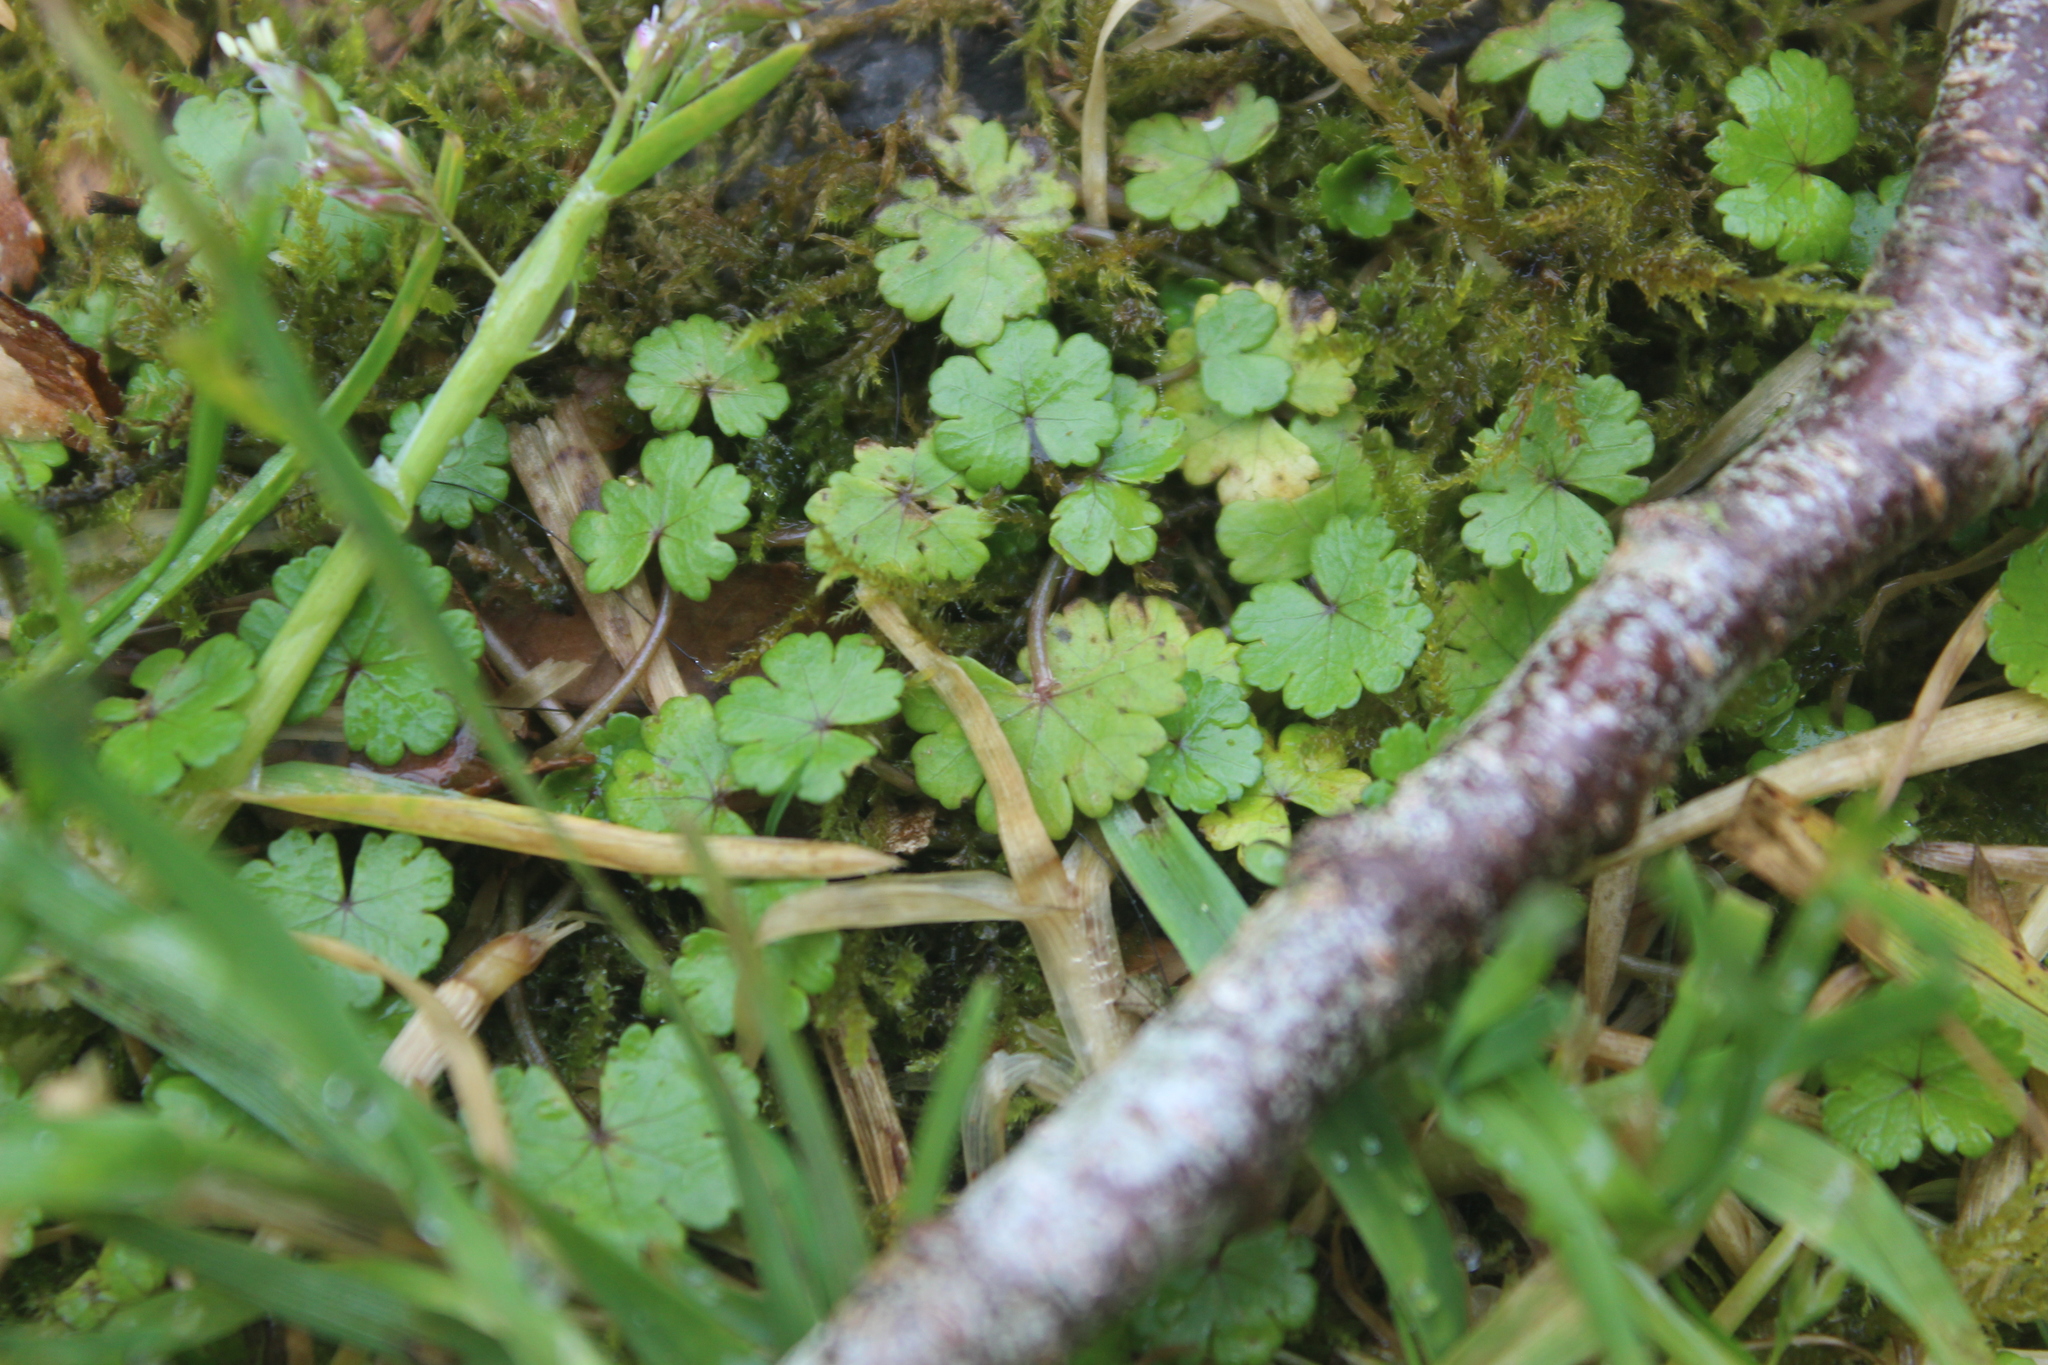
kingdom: Plantae
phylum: Tracheophyta
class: Magnoliopsida
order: Apiales
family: Araliaceae
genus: Hydrocotyle
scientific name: Hydrocotyle novae-zeelandiae
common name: New zealand pennywort
